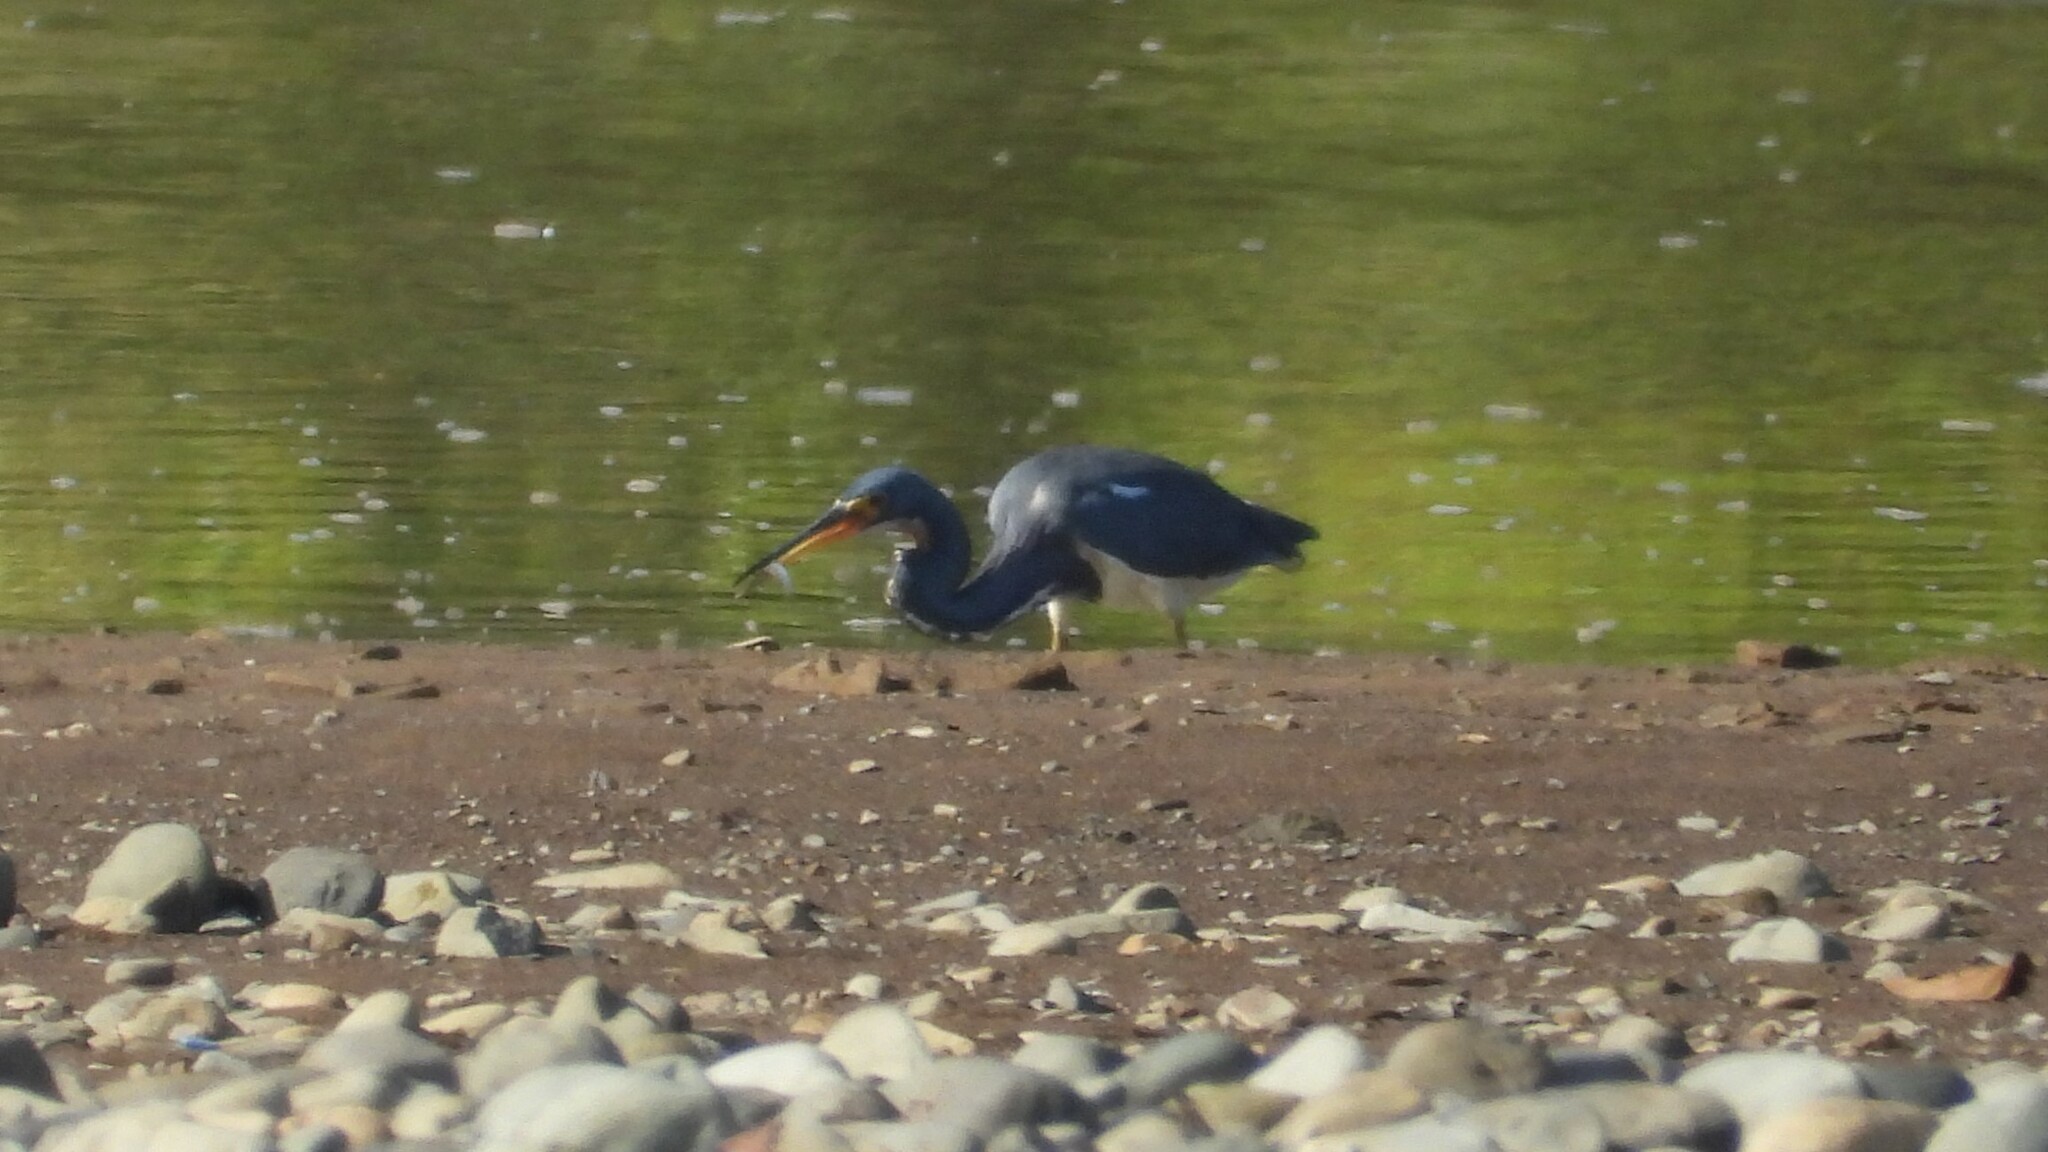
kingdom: Animalia
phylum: Chordata
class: Aves
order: Pelecaniformes
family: Ardeidae
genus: Egretta
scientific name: Egretta tricolor
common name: Tricolored heron
